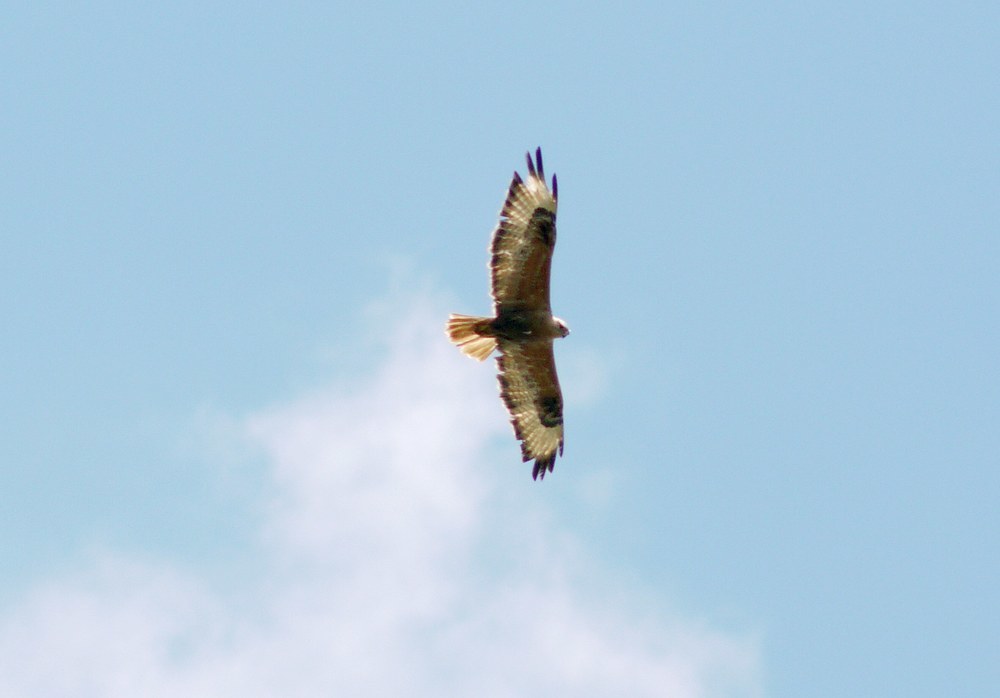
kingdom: Animalia
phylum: Chordata
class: Aves
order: Accipitriformes
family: Accipitridae
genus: Buteo
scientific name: Buteo rufinus
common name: Long-legged buzzard
